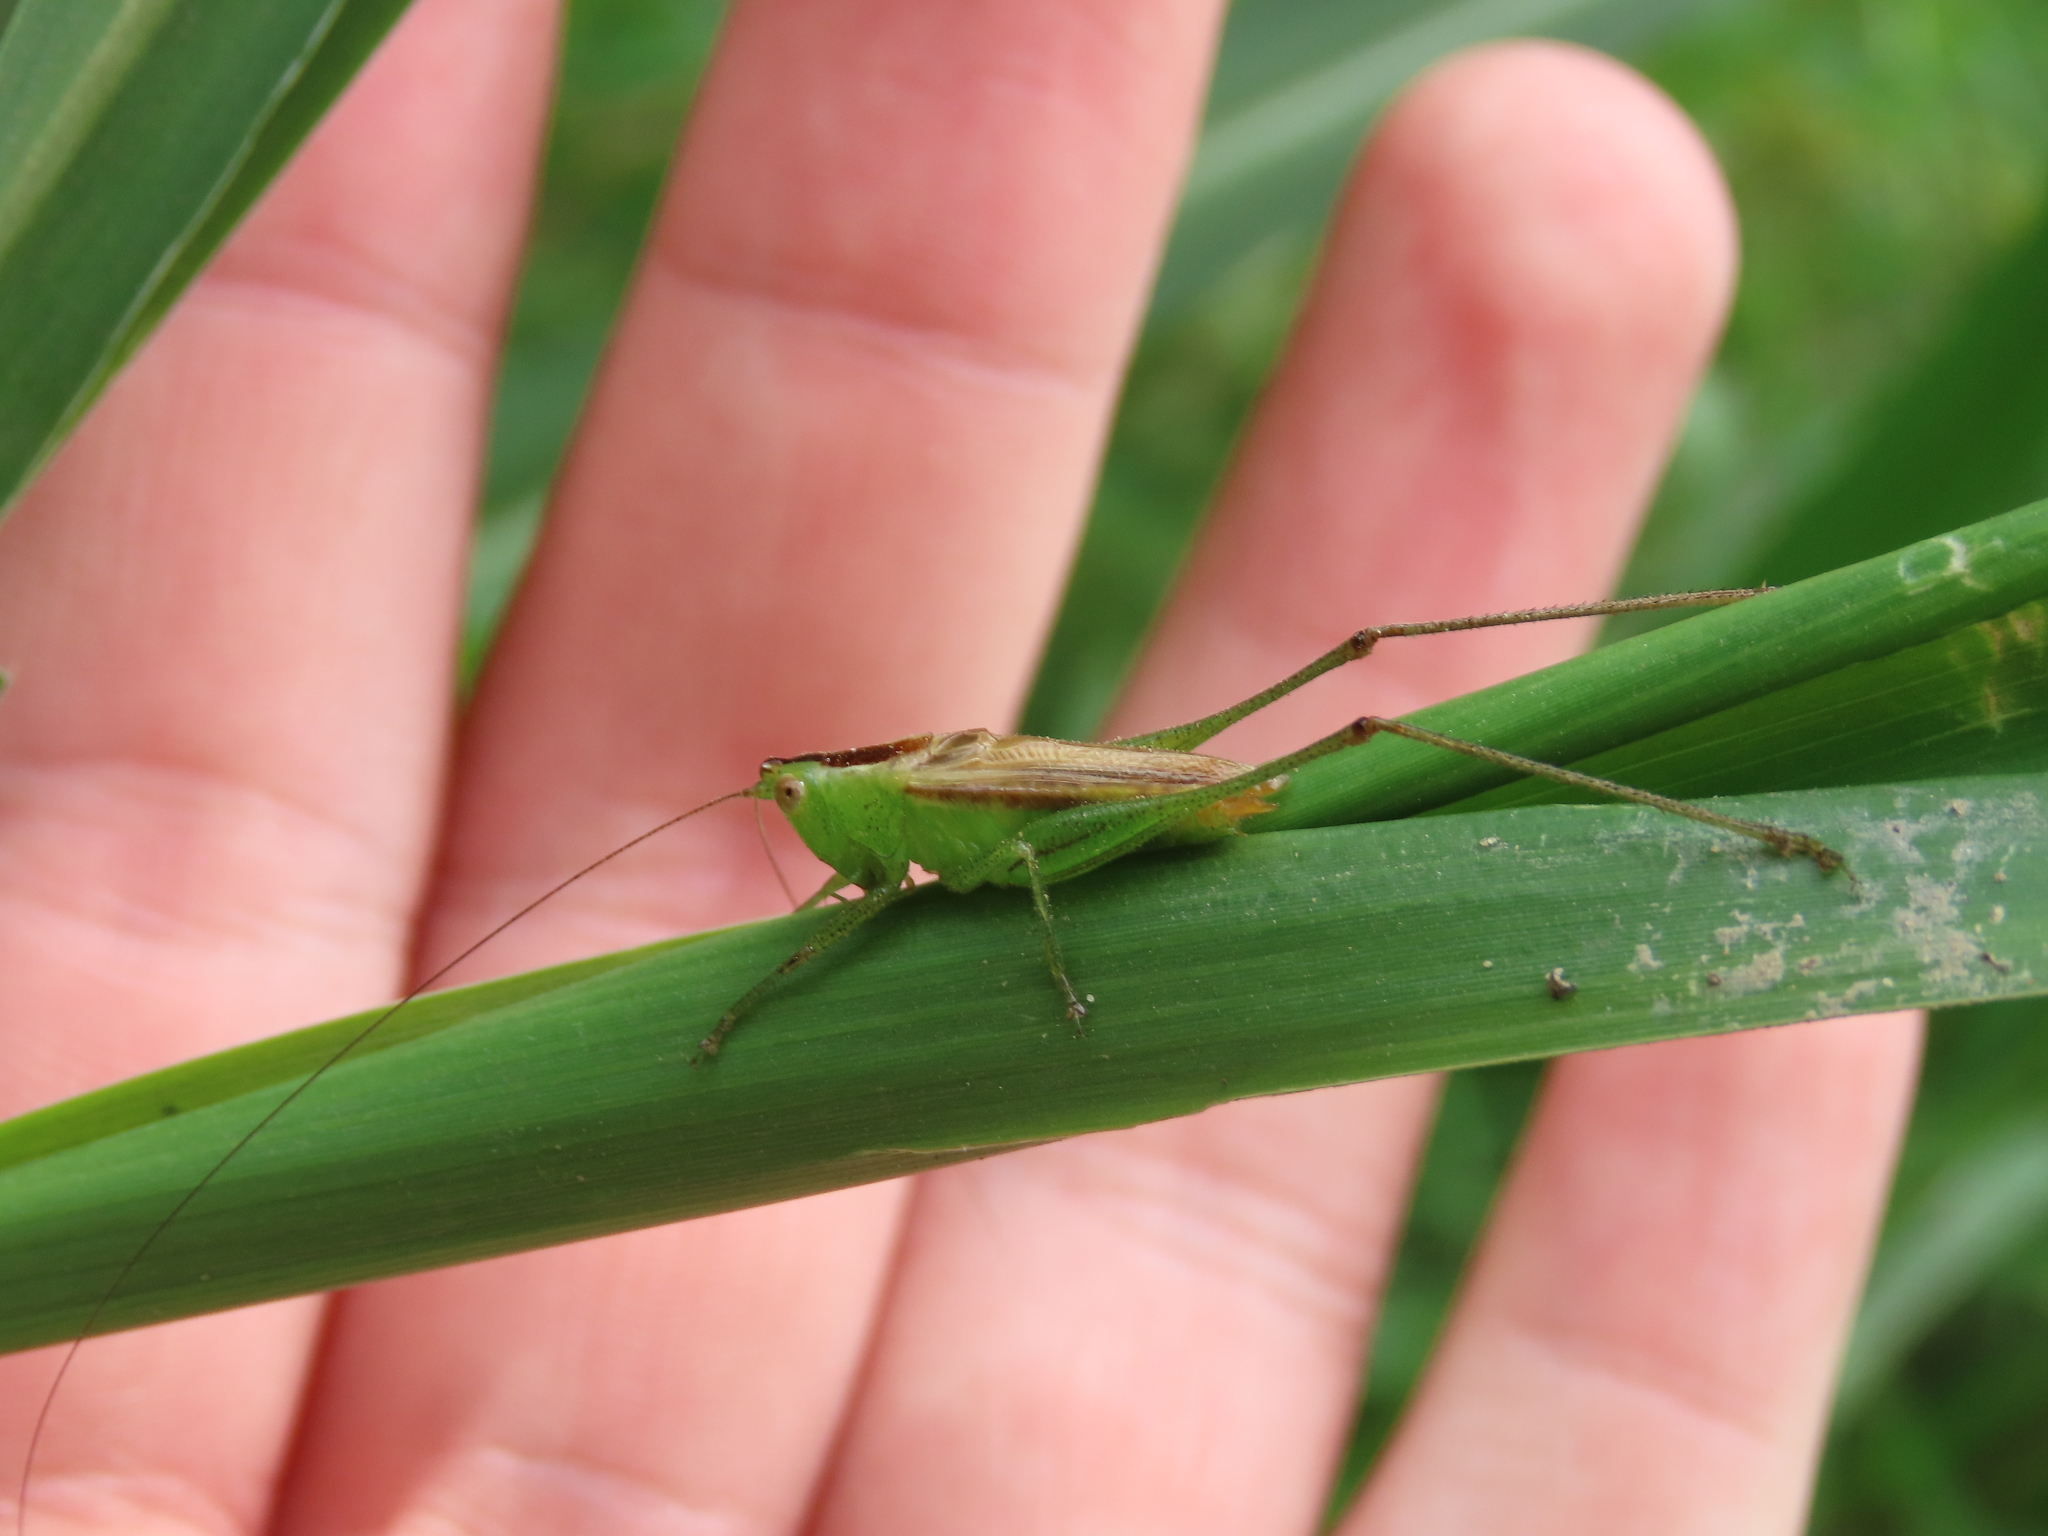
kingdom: Animalia
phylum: Arthropoda
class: Insecta
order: Orthoptera
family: Tettigoniidae
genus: Conocephalus
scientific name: Conocephalus brevipennis
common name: Short-winged meadow katydid
